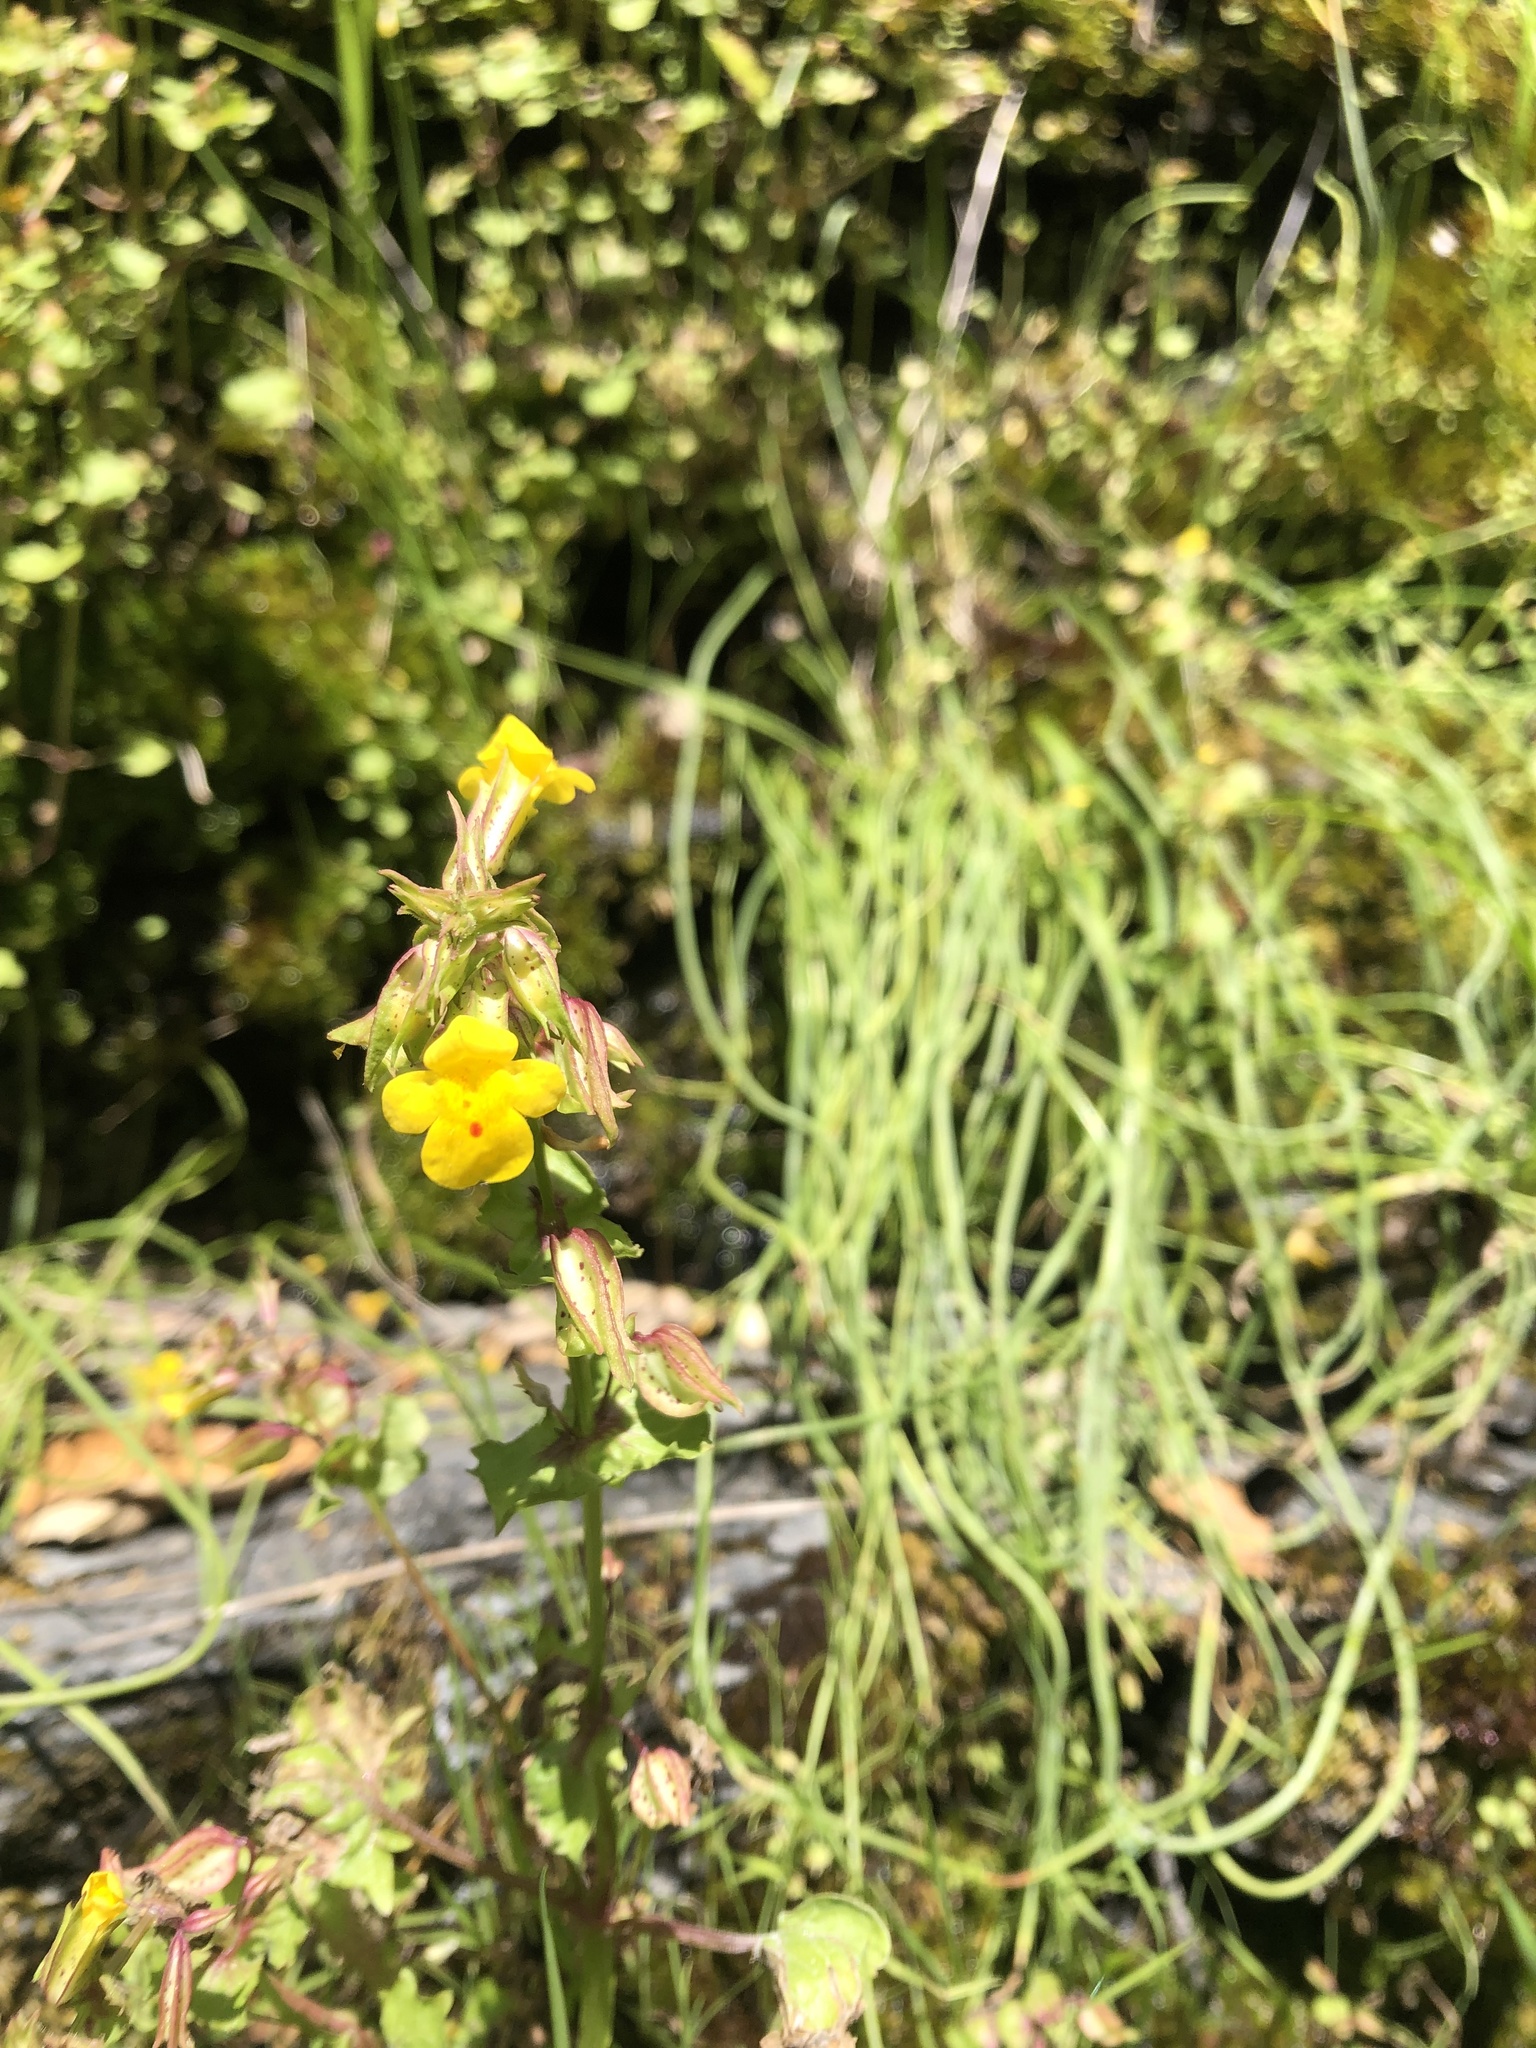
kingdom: Plantae
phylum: Tracheophyta
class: Magnoliopsida
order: Lamiales
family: Phrymaceae
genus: Erythranthe
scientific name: Erythranthe nasuta
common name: Sooke monkeyflower
